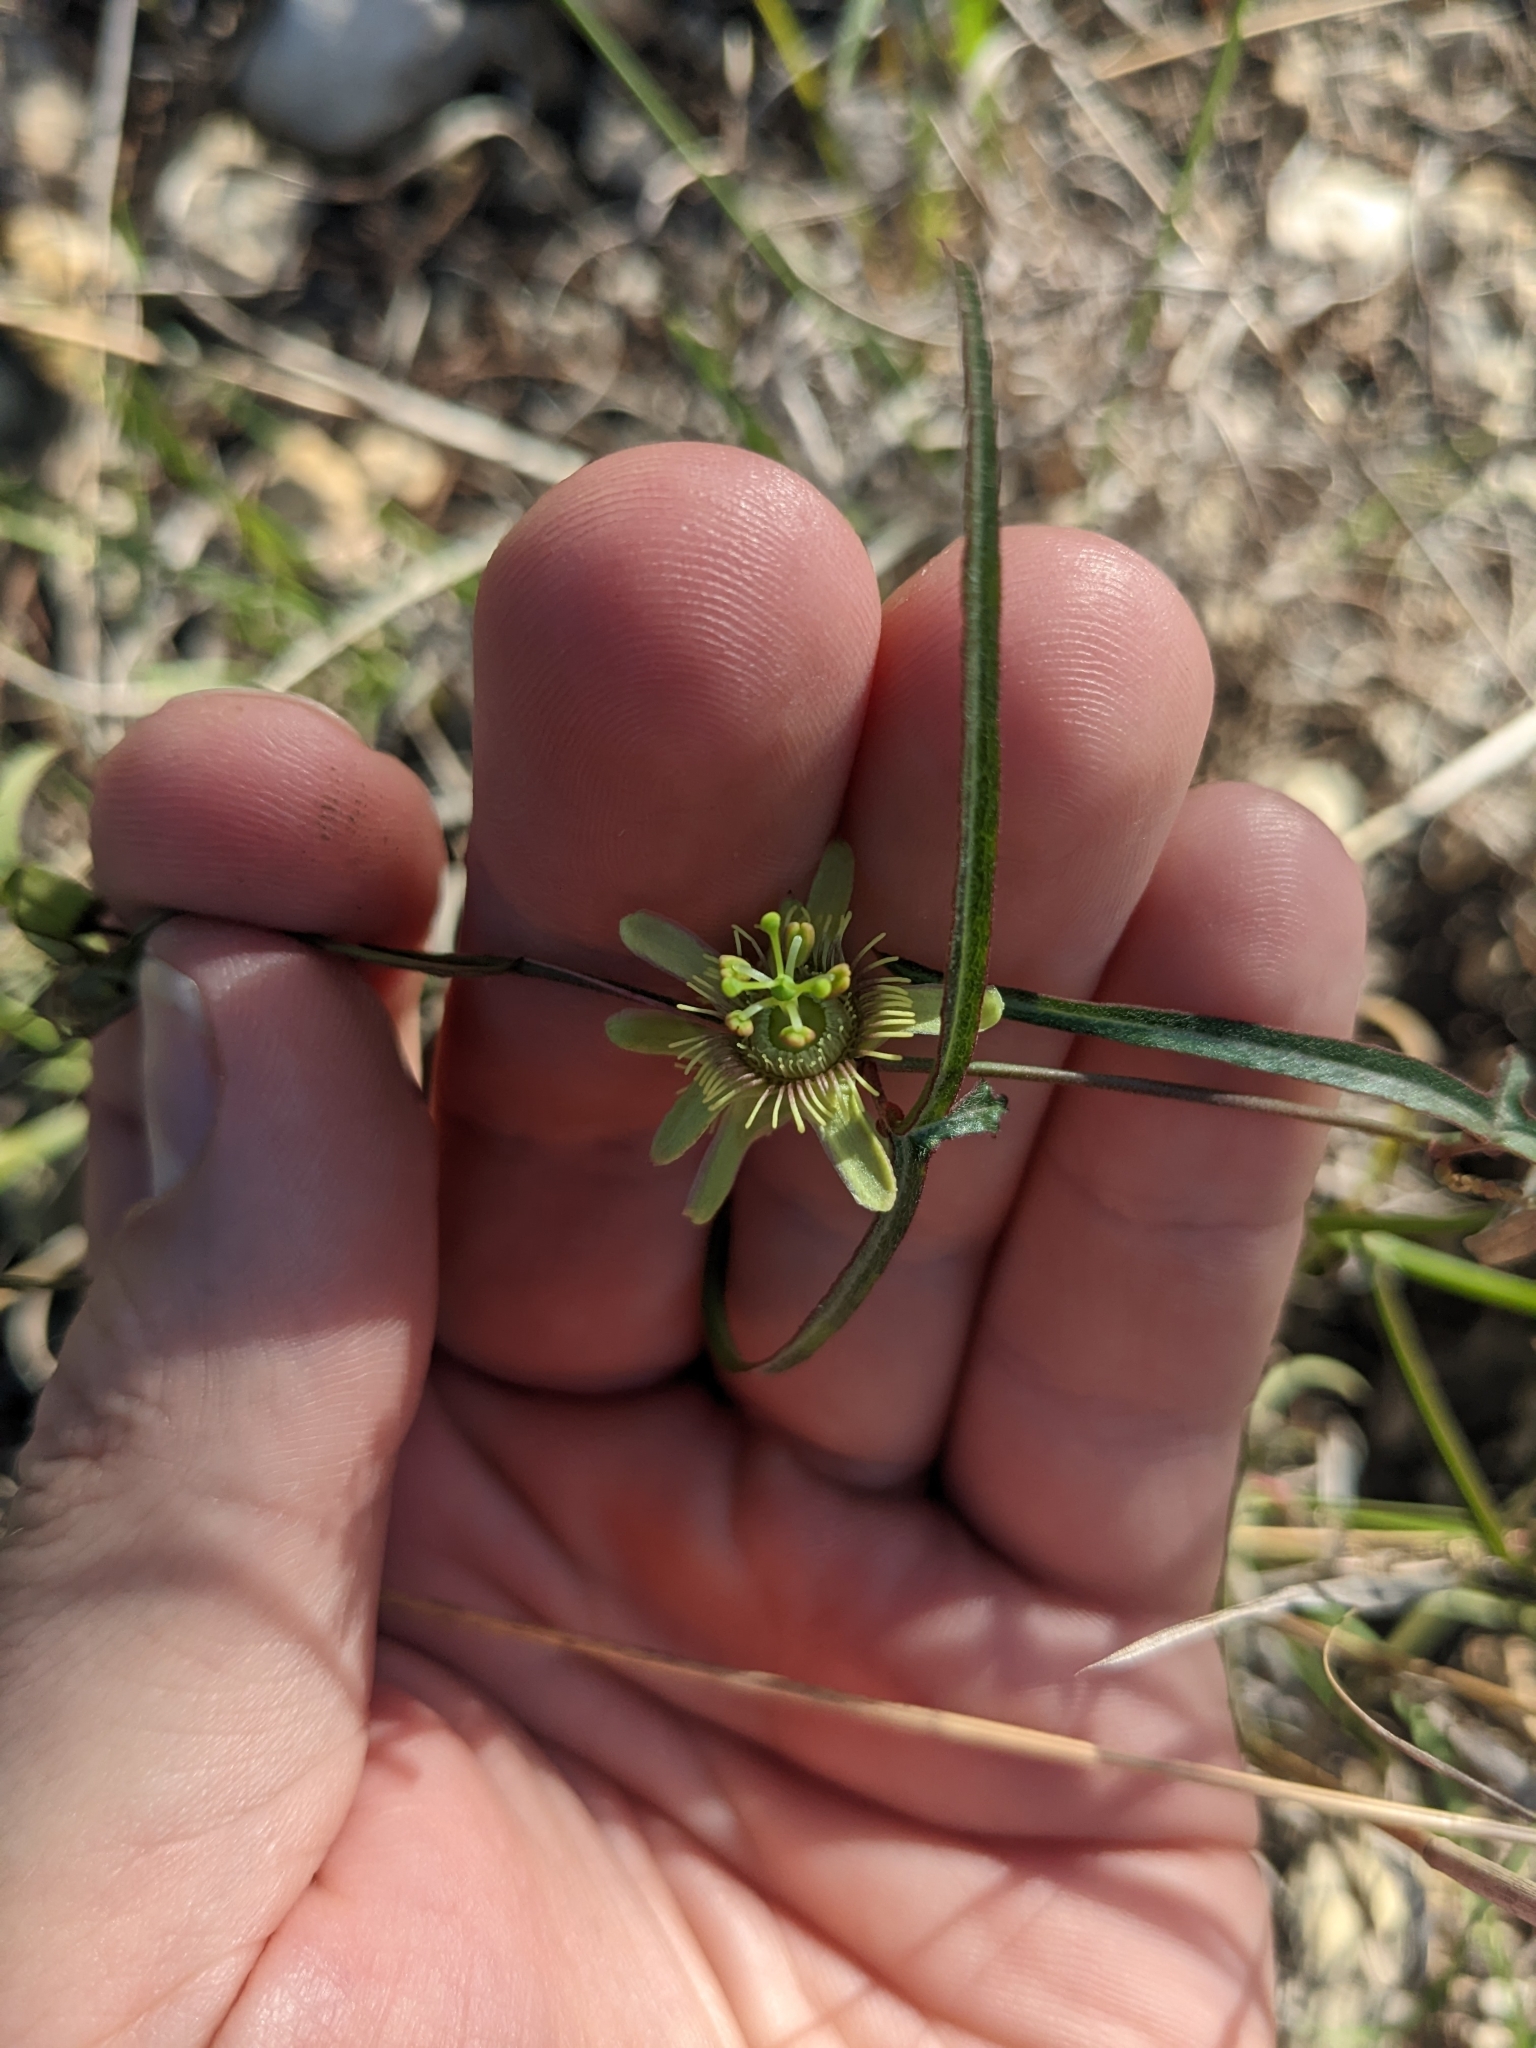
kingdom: Plantae
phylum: Tracheophyta
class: Magnoliopsida
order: Malpighiales
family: Passifloraceae
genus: Passiflora
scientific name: Passiflora tenuiloba
